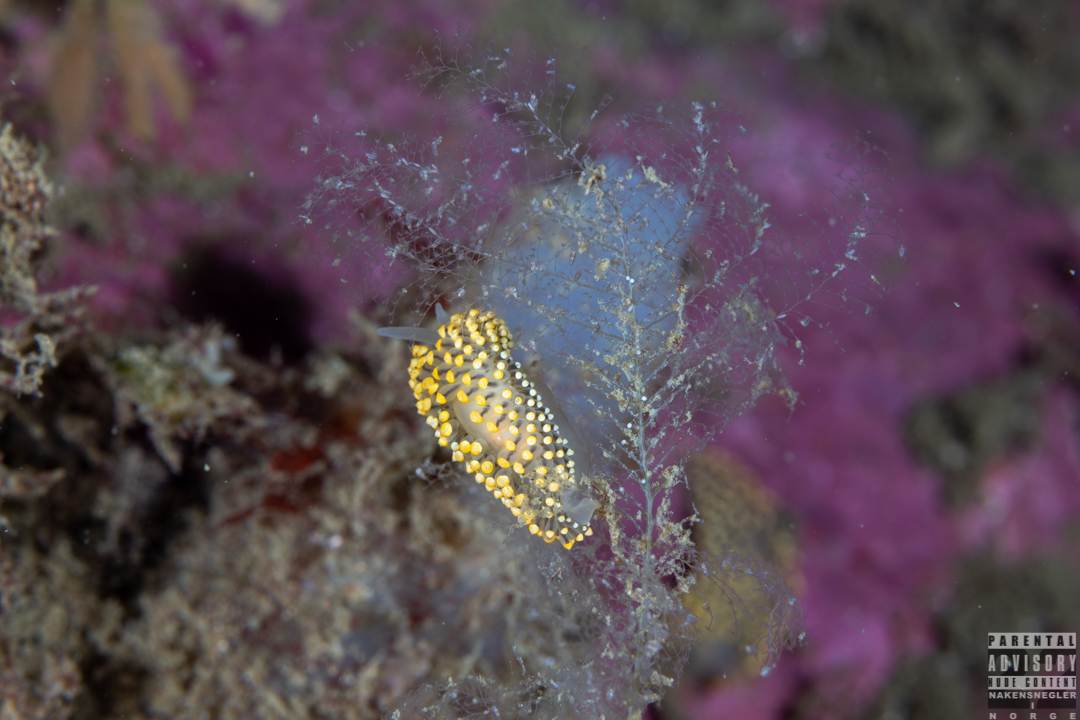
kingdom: Animalia
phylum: Mollusca
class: Gastropoda
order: Nudibranchia
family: Eubranchidae
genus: Eubranchus
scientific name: Eubranchus tricolor
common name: Painted balloon aeolis
